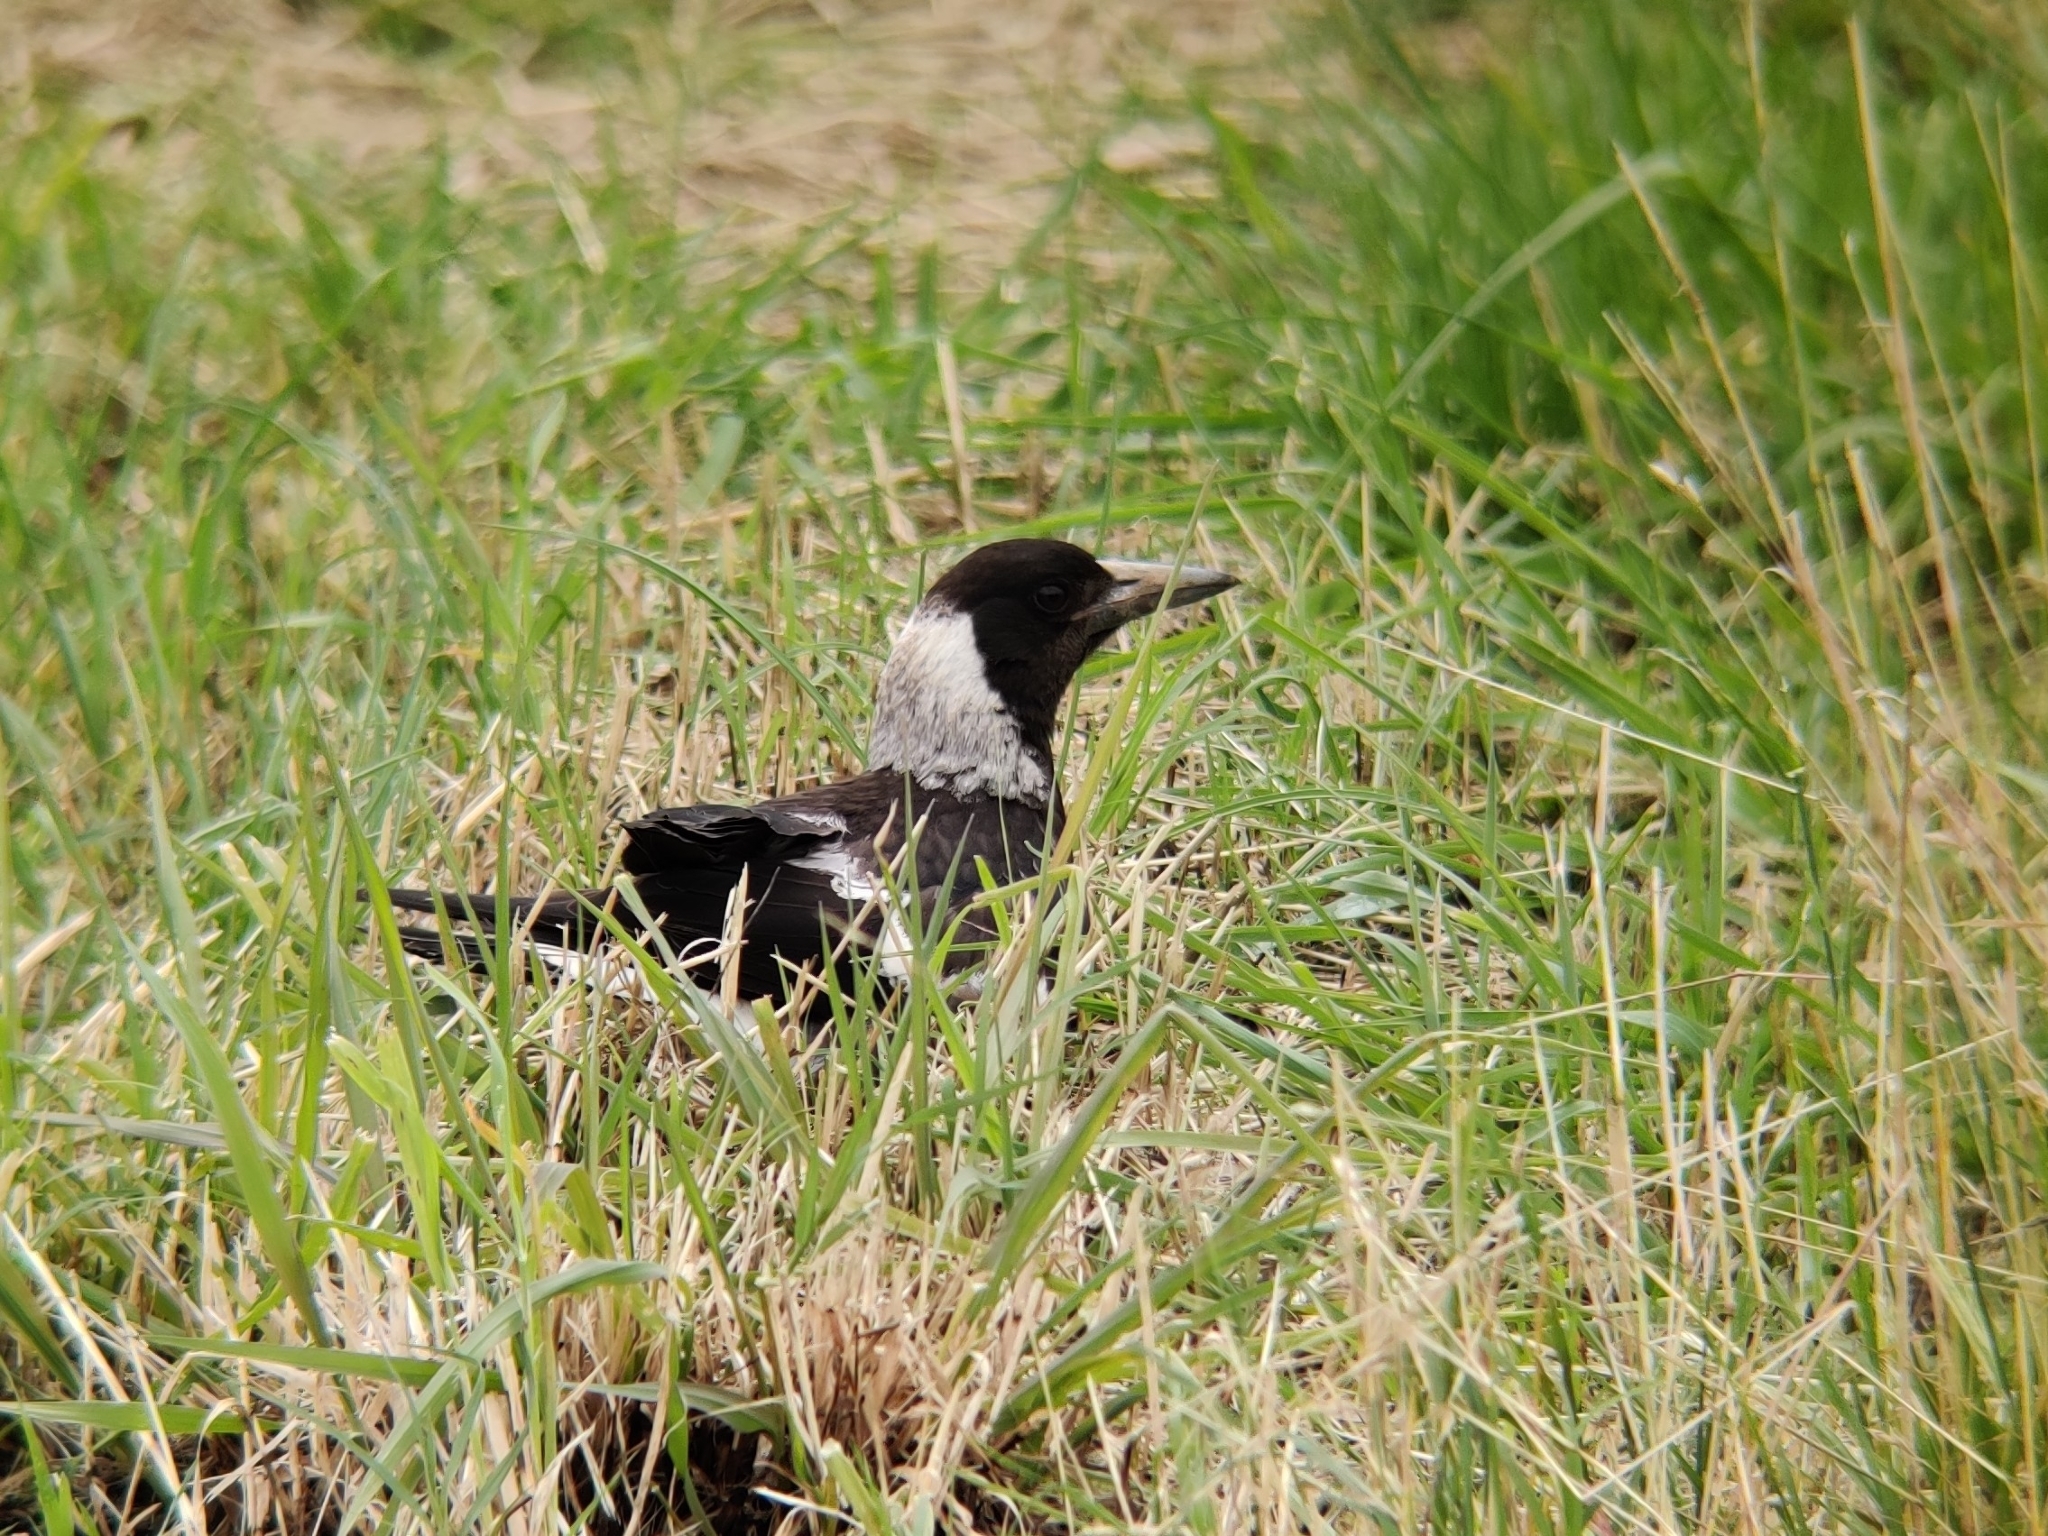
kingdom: Animalia
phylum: Chordata
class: Aves
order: Passeriformes
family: Cracticidae
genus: Gymnorhina
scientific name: Gymnorhina tibicen
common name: Australian magpie
